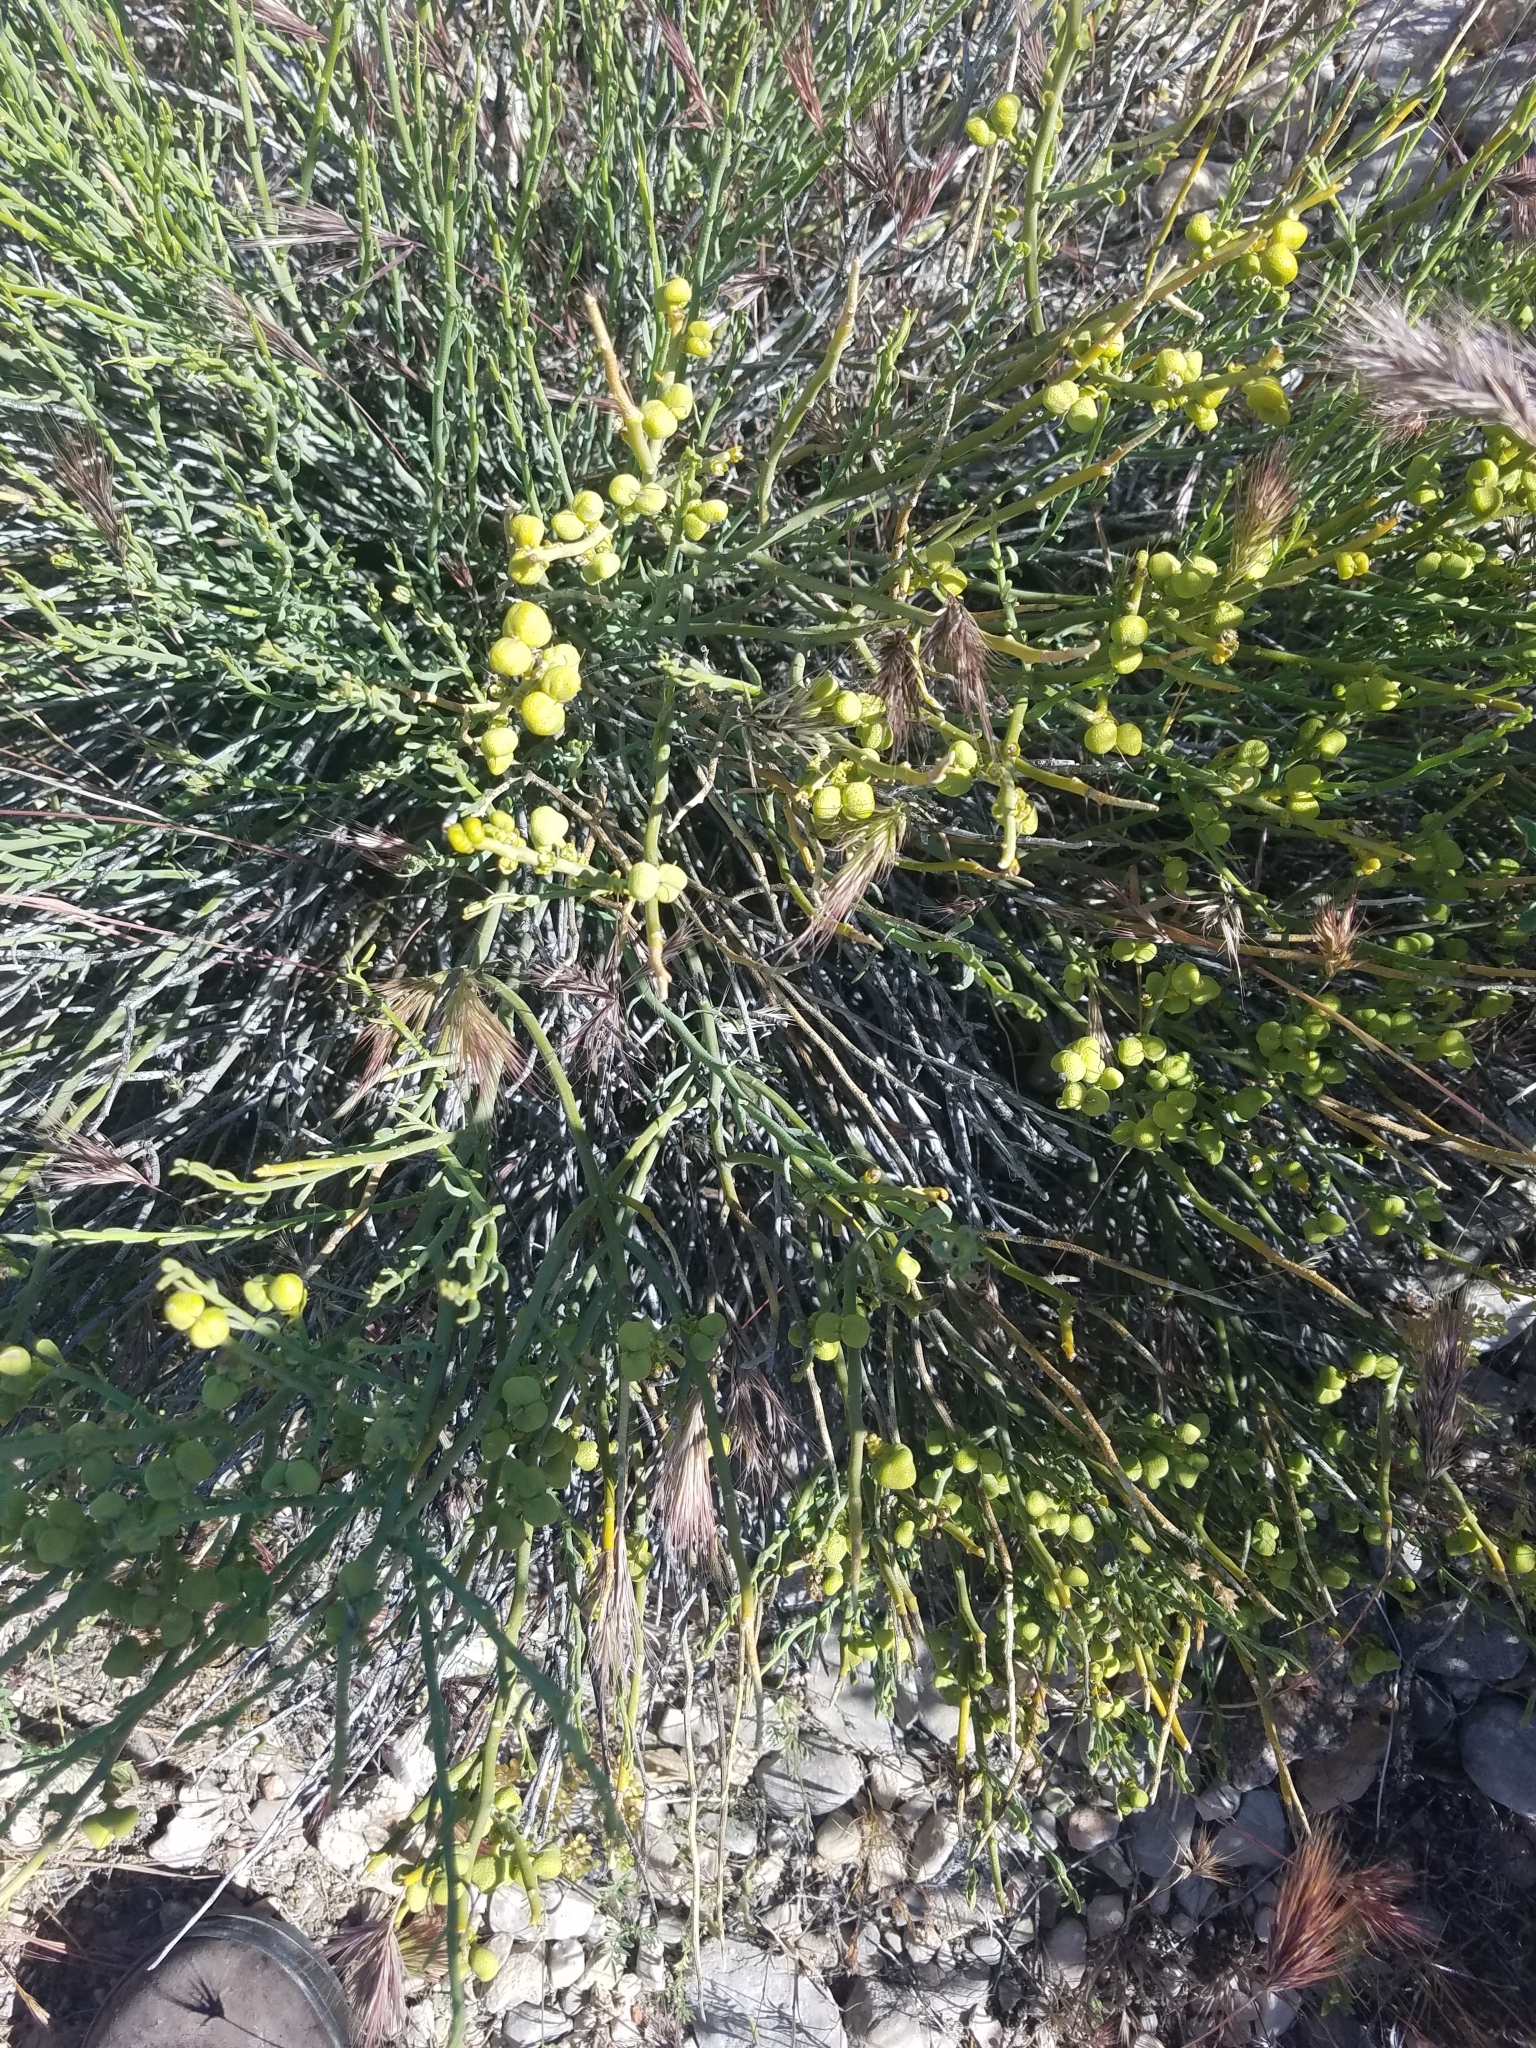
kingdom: Plantae
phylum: Tracheophyta
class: Magnoliopsida
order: Sapindales
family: Rutaceae
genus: Thamnosma
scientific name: Thamnosma montana
